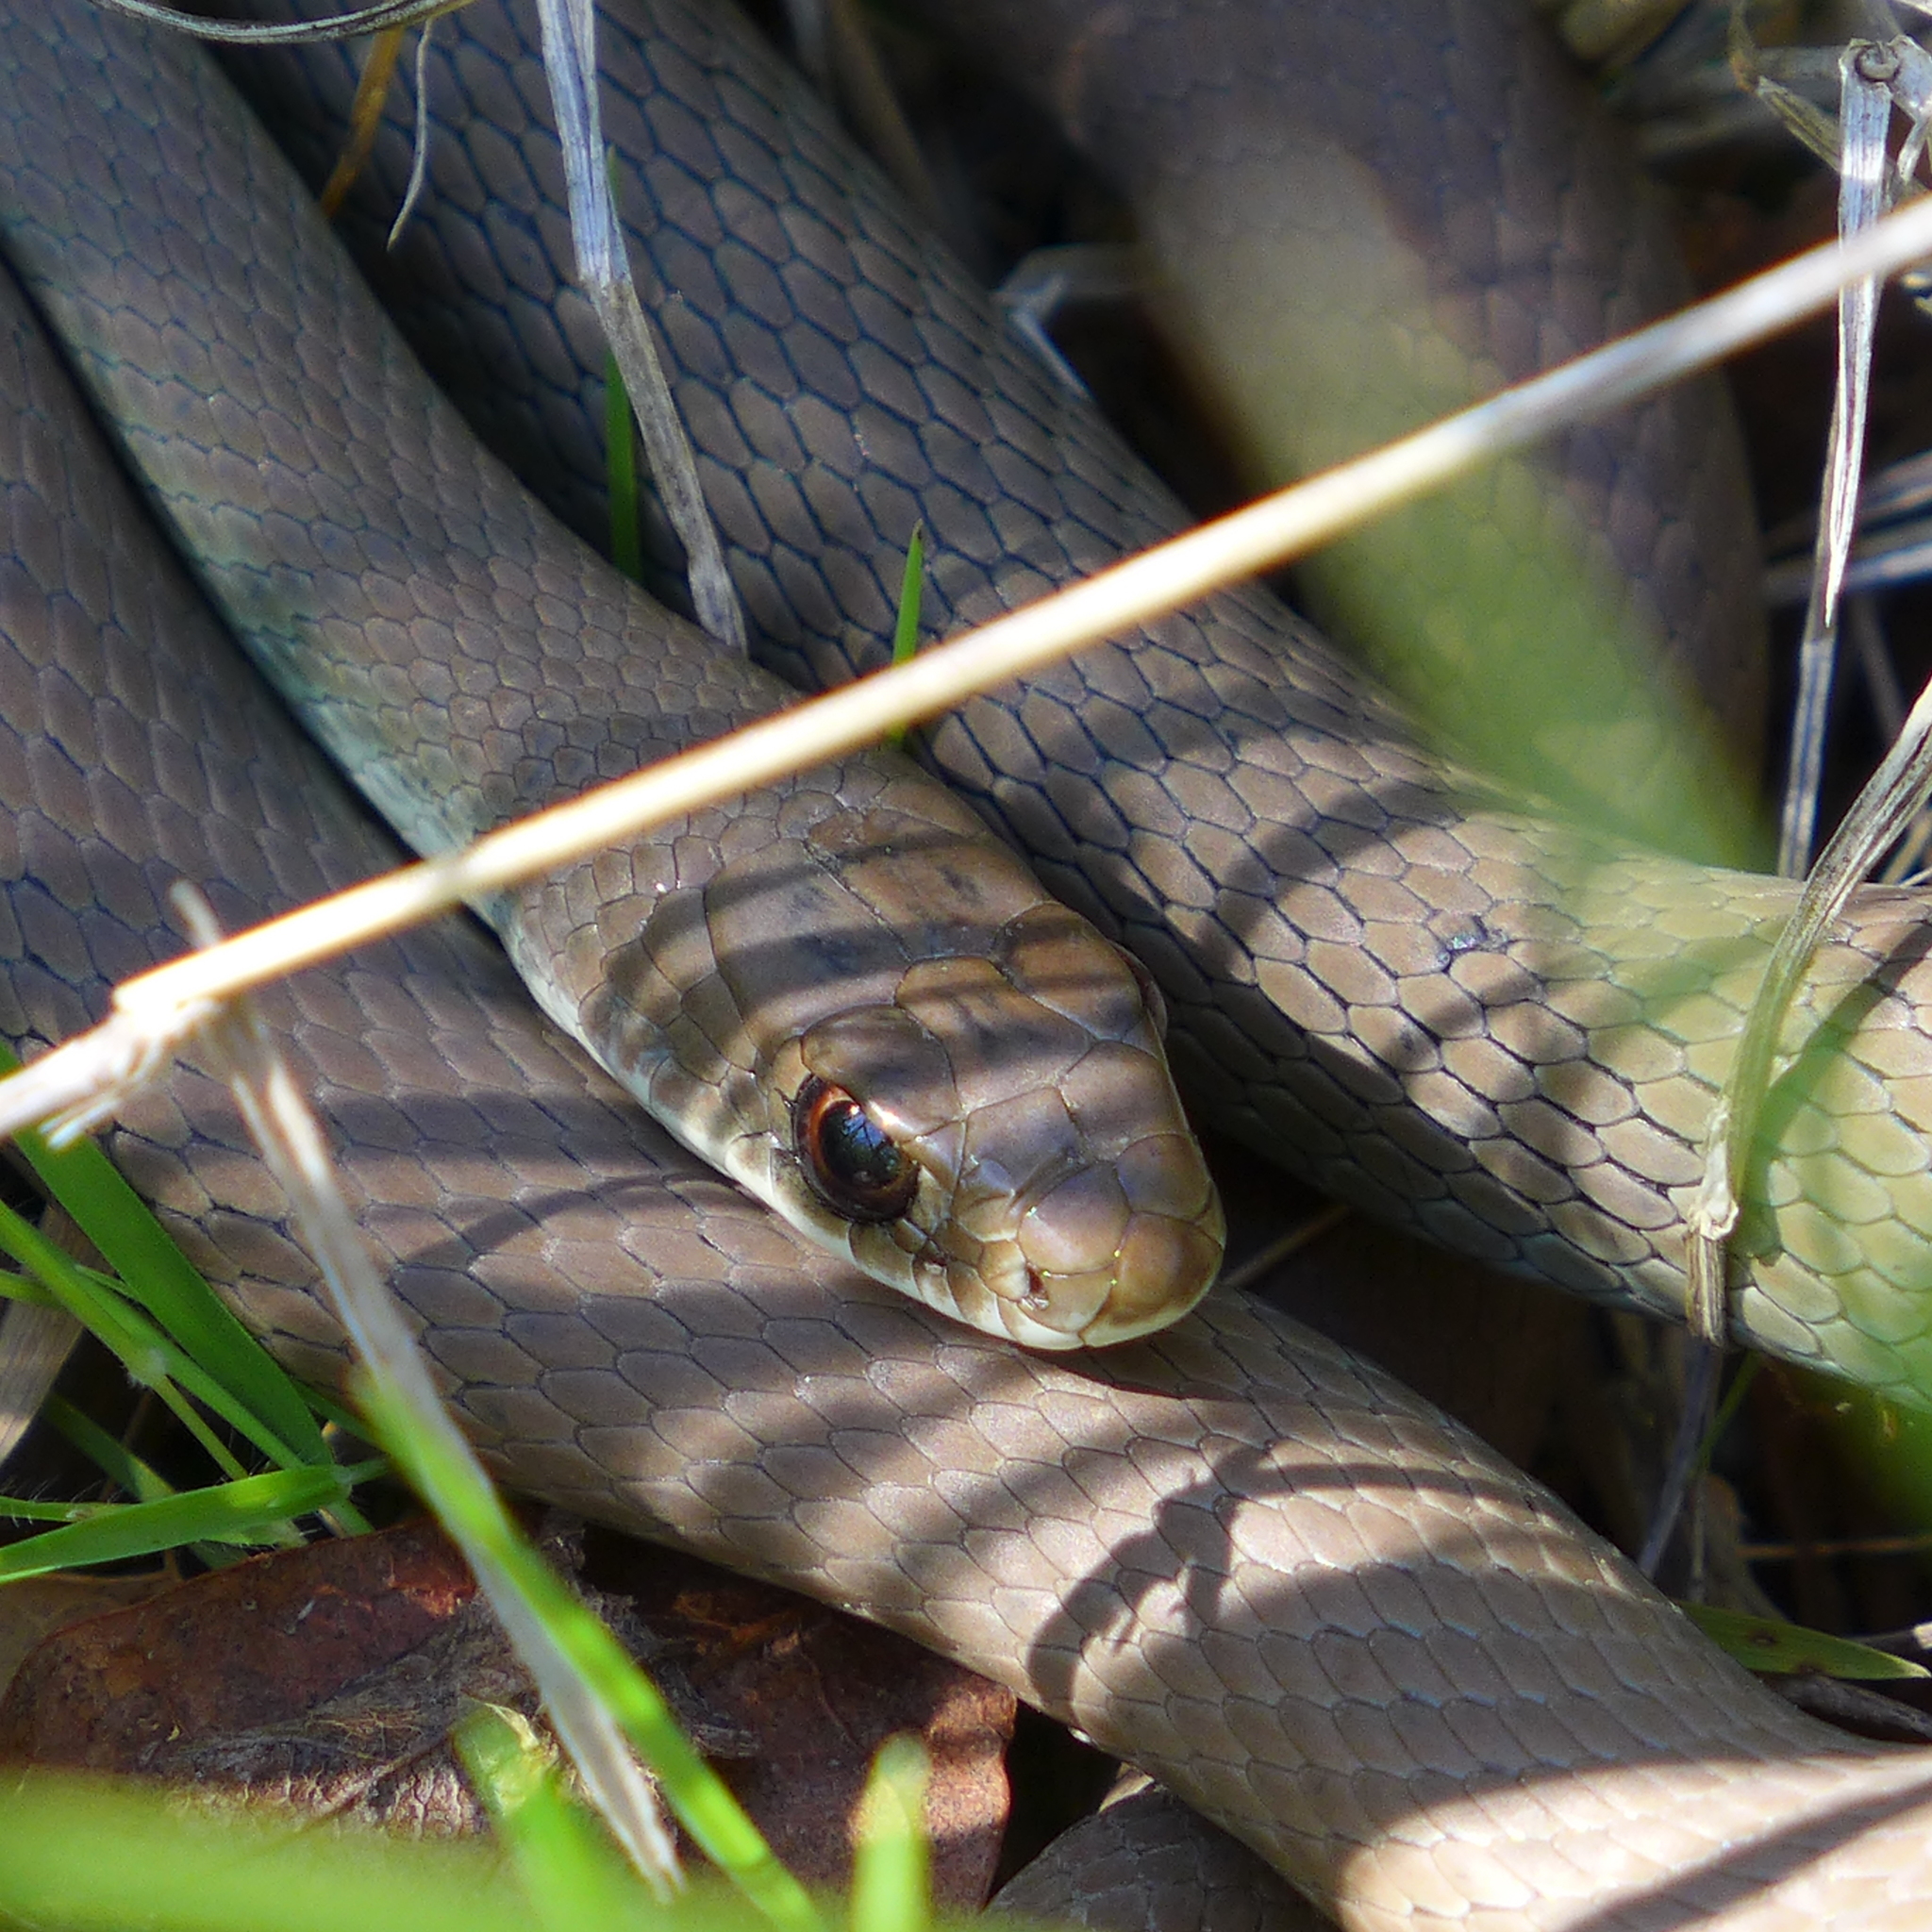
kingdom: Animalia
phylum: Chordata
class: Squamata
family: Colubridae
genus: Coluber
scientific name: Coluber constrictor
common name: Eastern racer
